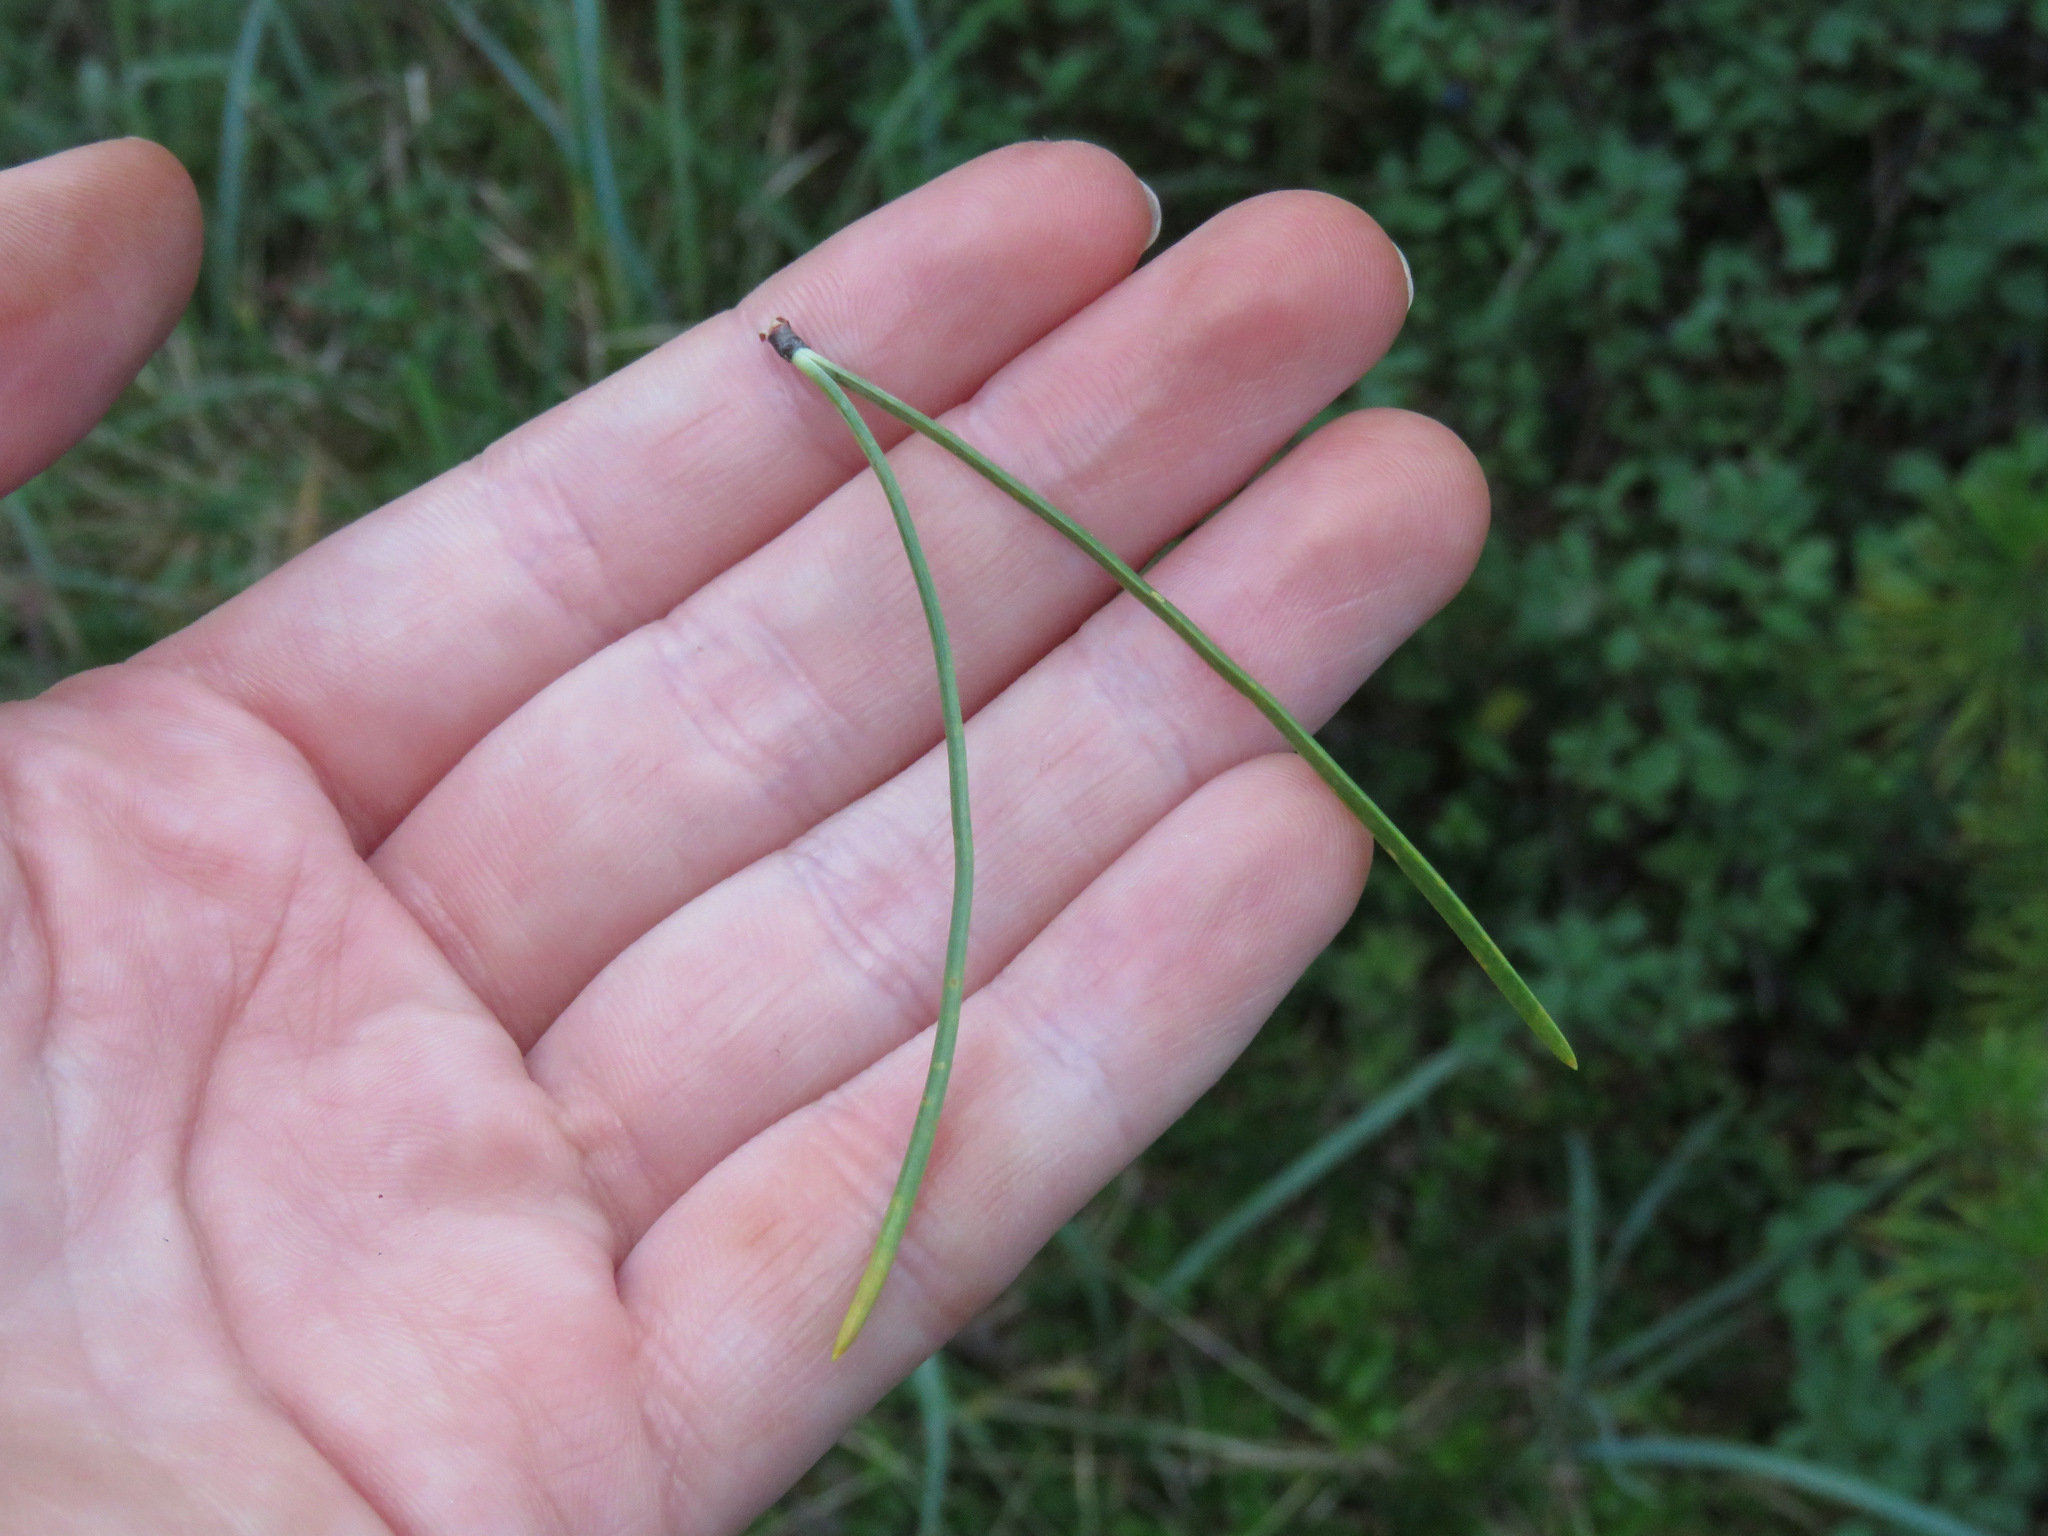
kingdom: Plantae
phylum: Tracheophyta
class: Pinopsida
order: Pinales
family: Pinaceae
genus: Pinus
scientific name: Pinus contorta
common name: Lodgepole pine
